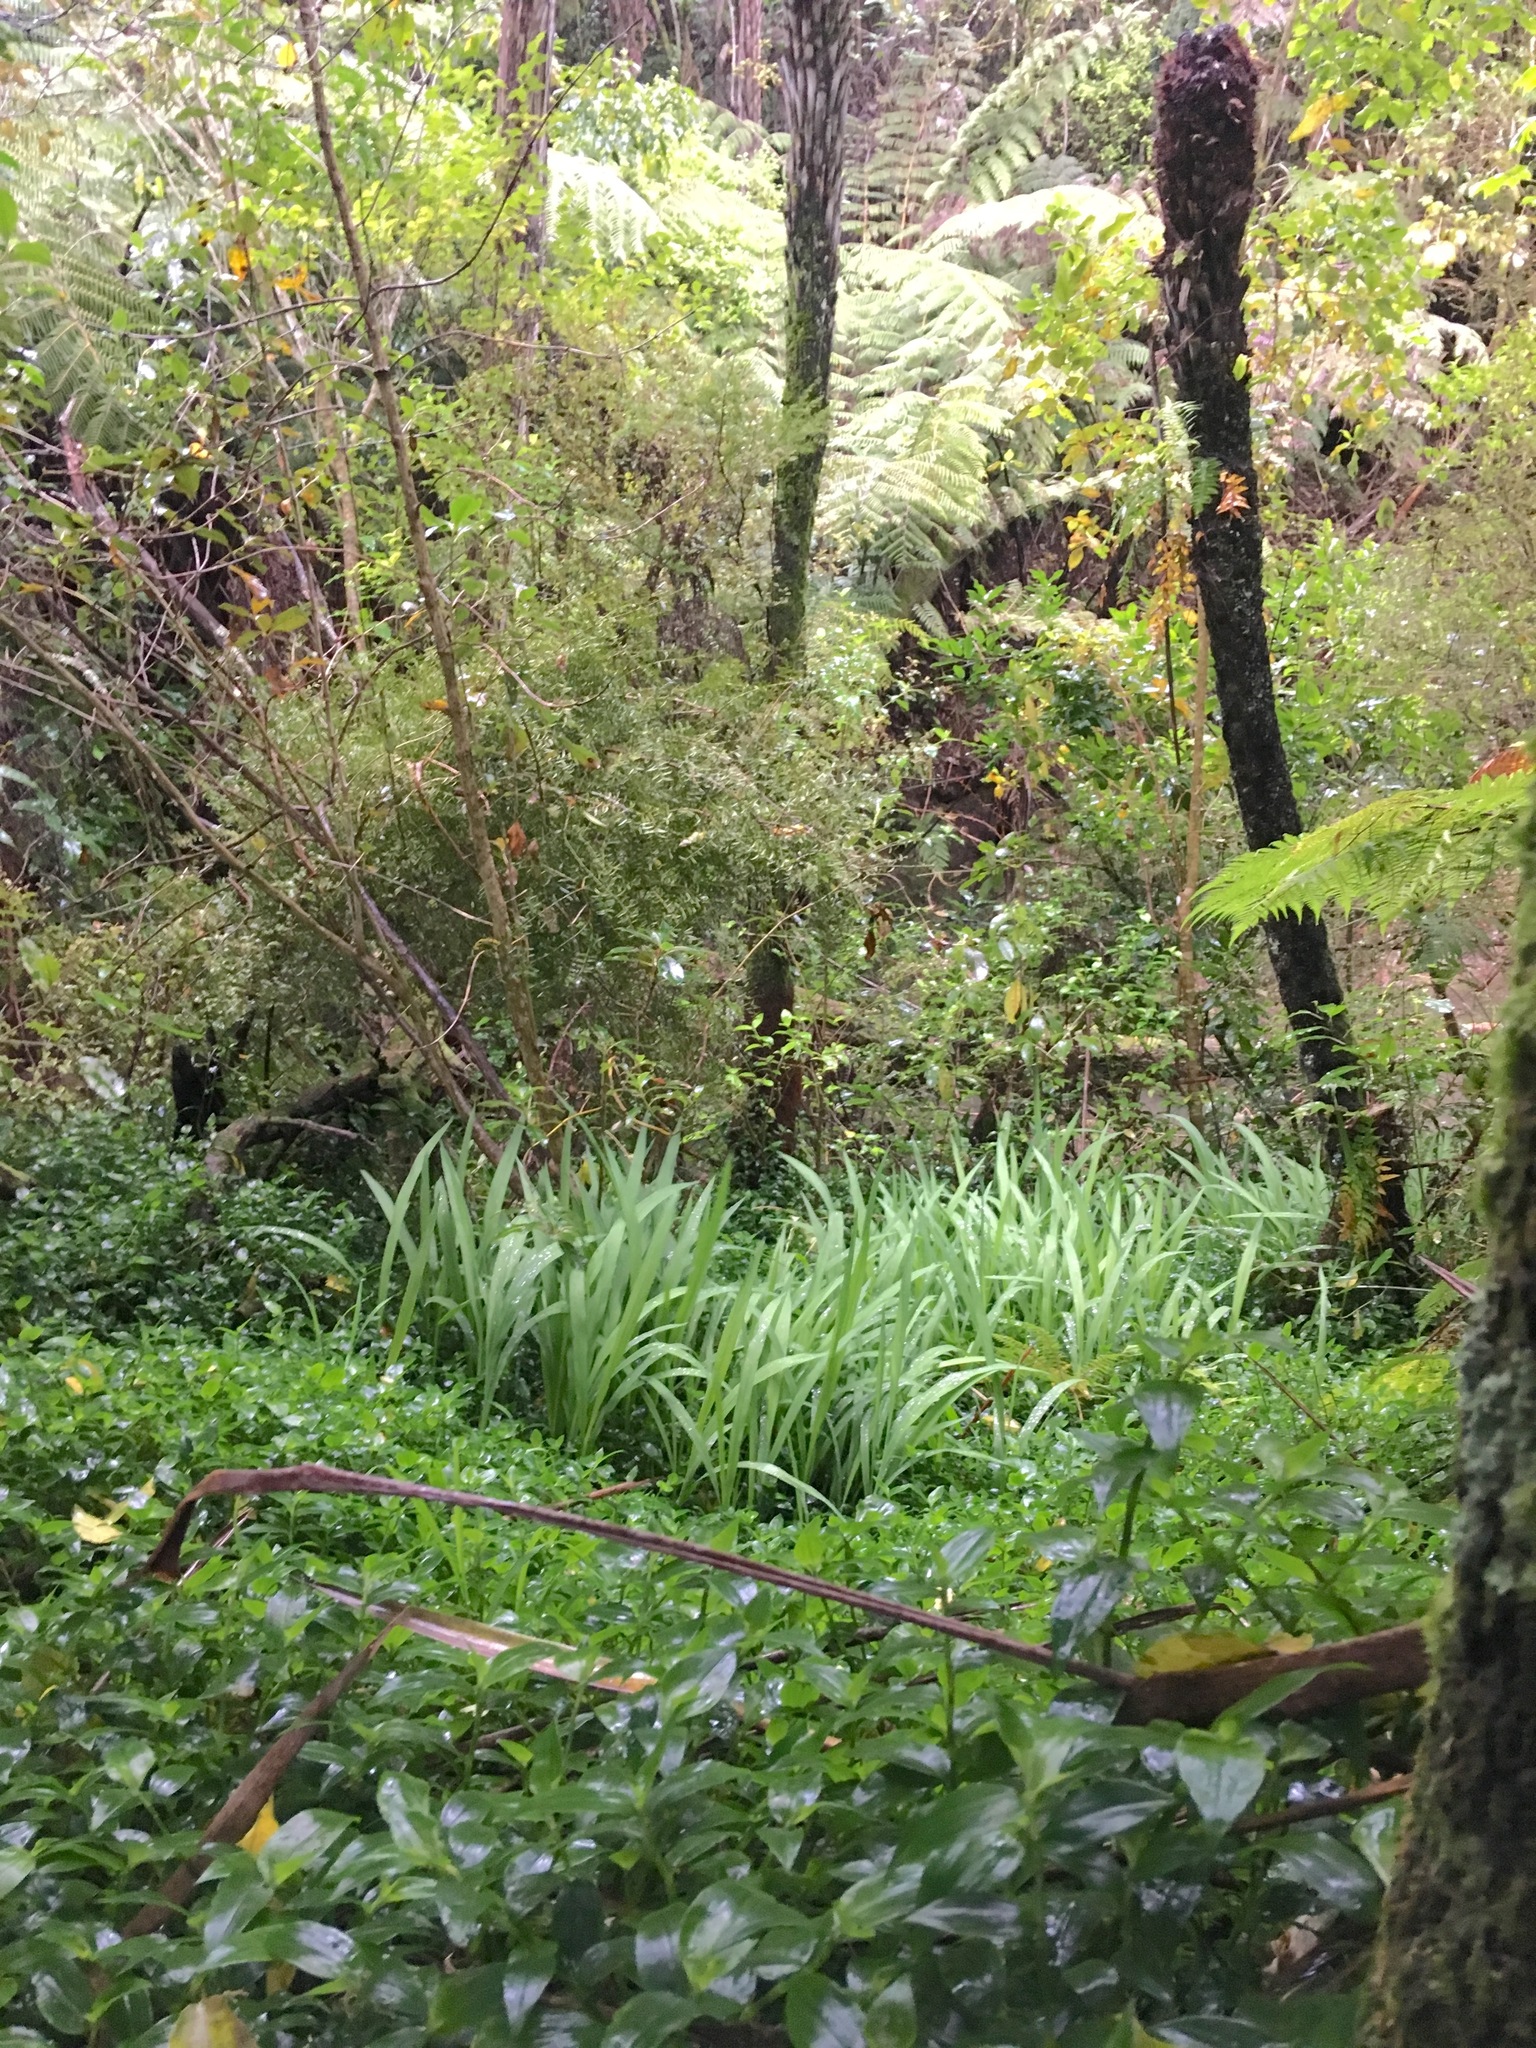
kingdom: Plantae
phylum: Tracheophyta
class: Liliopsida
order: Asparagales
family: Iridaceae
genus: Crocosmia
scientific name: Crocosmia crocosmiiflora
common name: Montbretia
